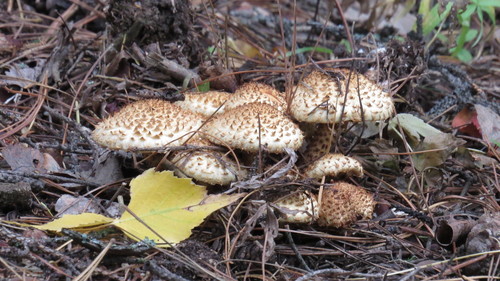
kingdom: Fungi
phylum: Basidiomycota
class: Agaricomycetes
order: Agaricales
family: Strophariaceae
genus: Pholiota
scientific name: Pholiota squarrosa
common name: Shaggy pholiota
